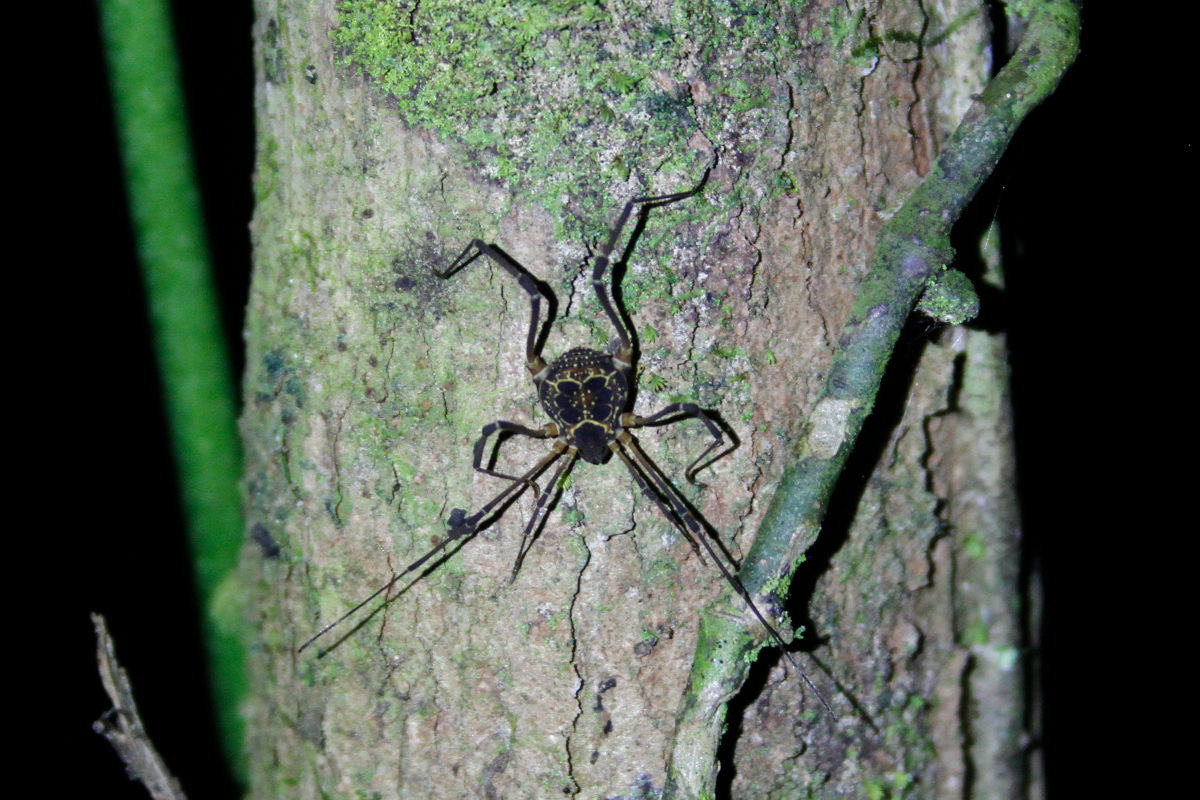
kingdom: Animalia
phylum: Arthropoda
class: Arachnida
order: Opiliones
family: Cosmetidae
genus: Eucynortula
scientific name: Eucynortula albipunctata
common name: Harvestmen
